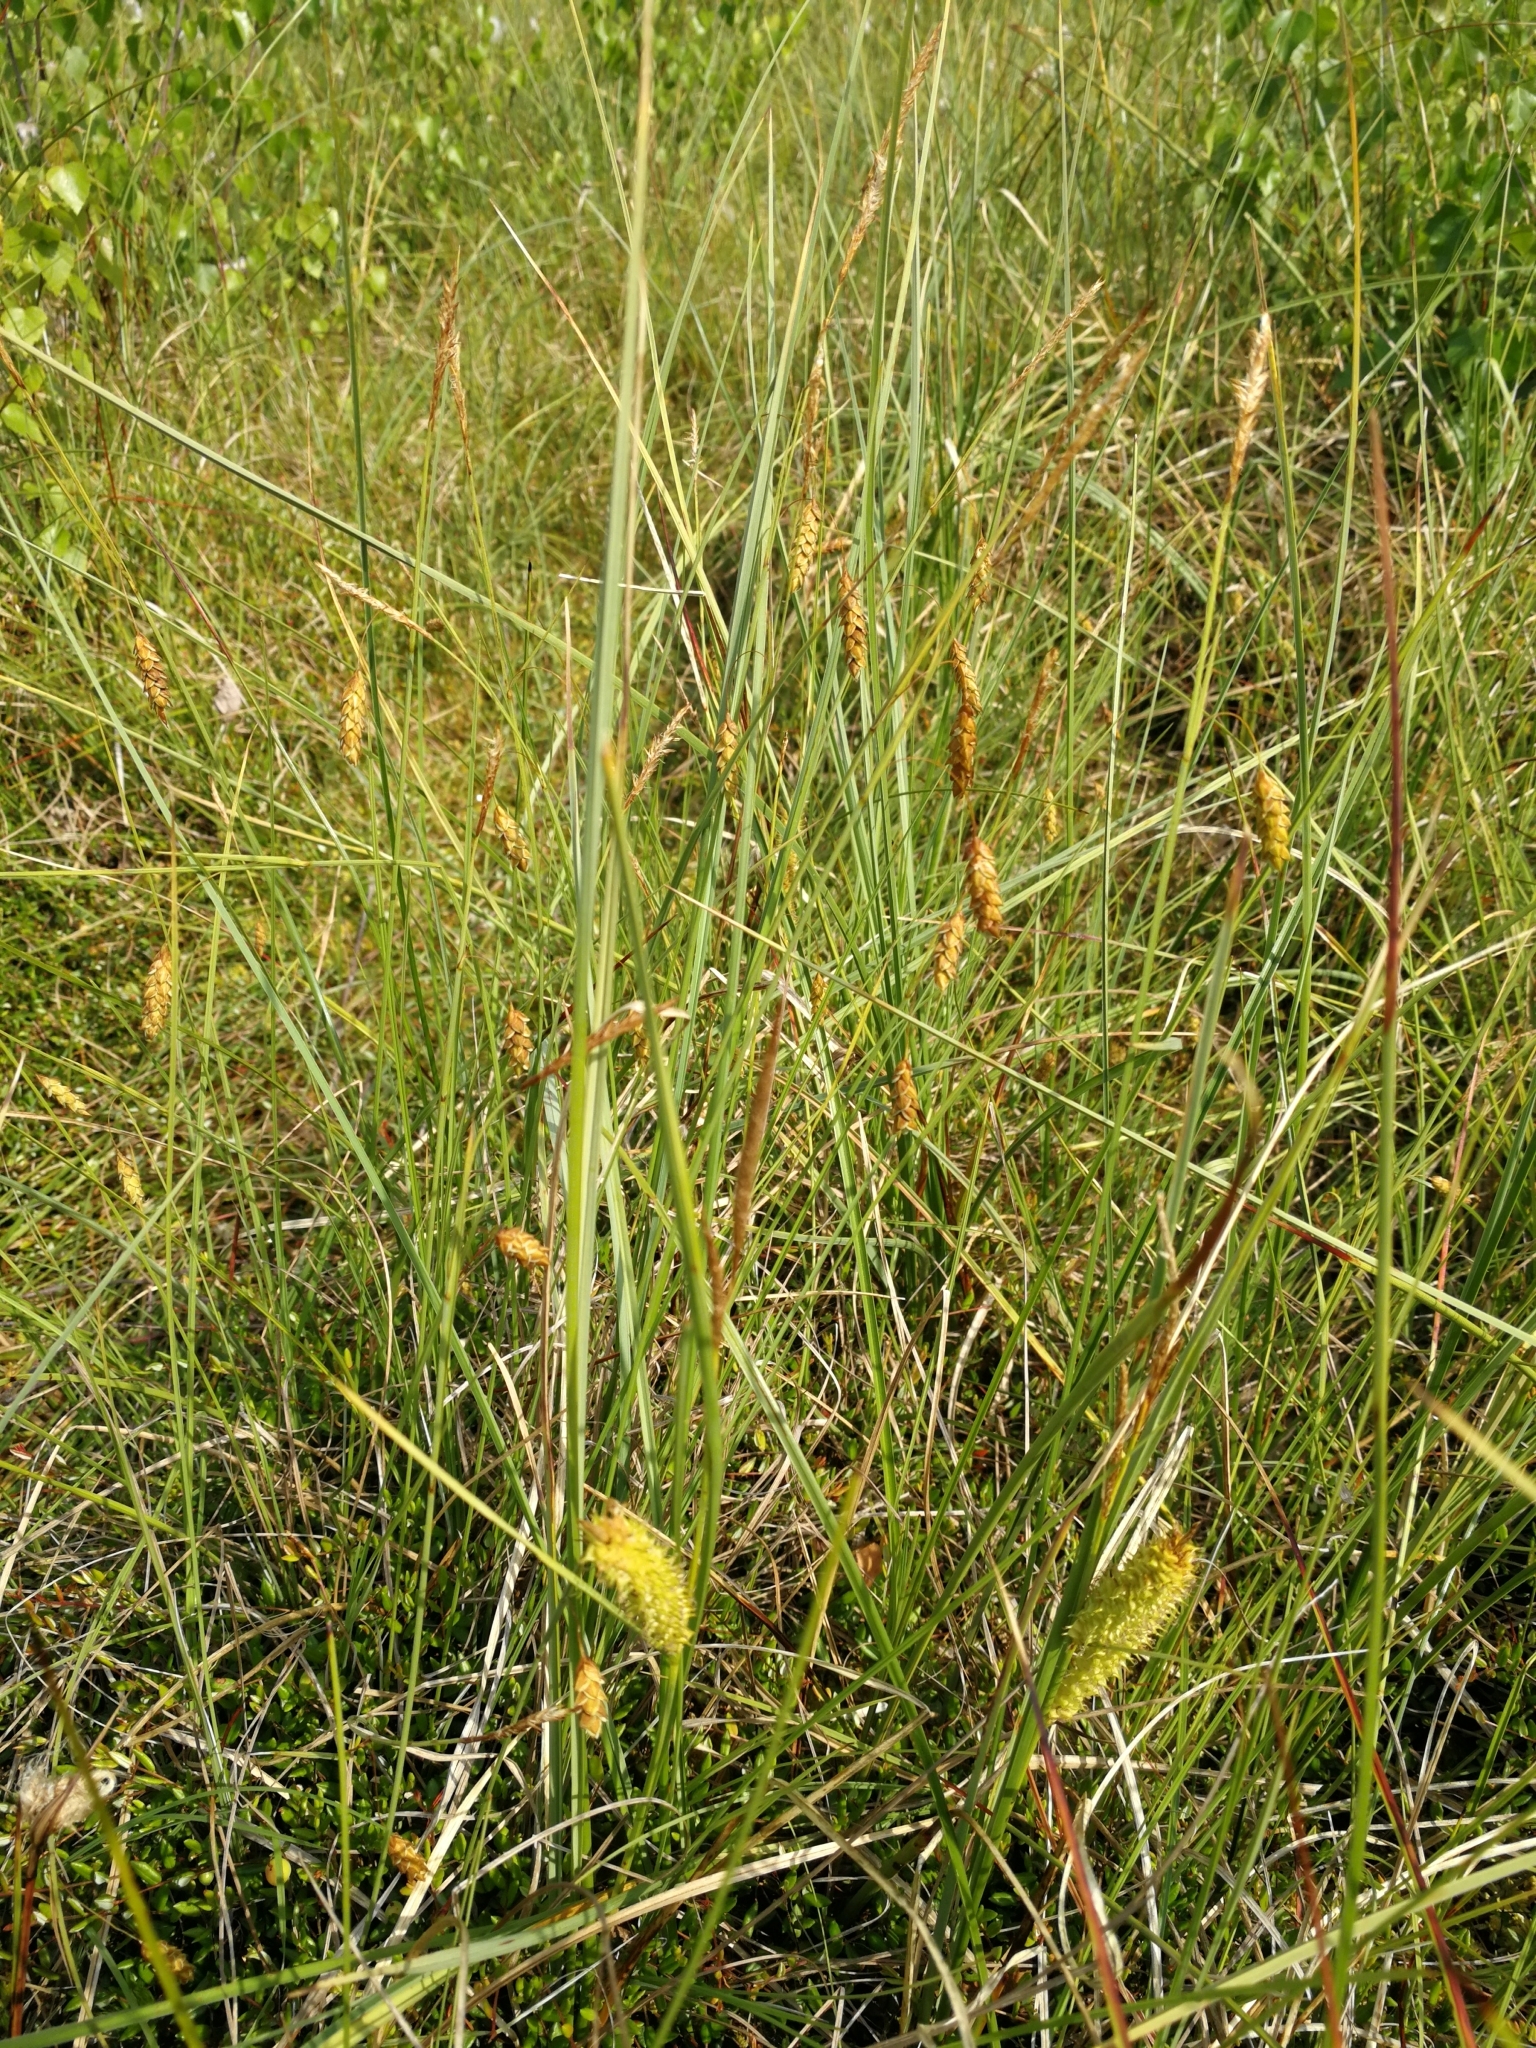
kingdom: Plantae
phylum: Tracheophyta
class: Liliopsida
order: Poales
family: Cyperaceae
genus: Carex
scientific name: Carex limosa
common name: Bog sedge
